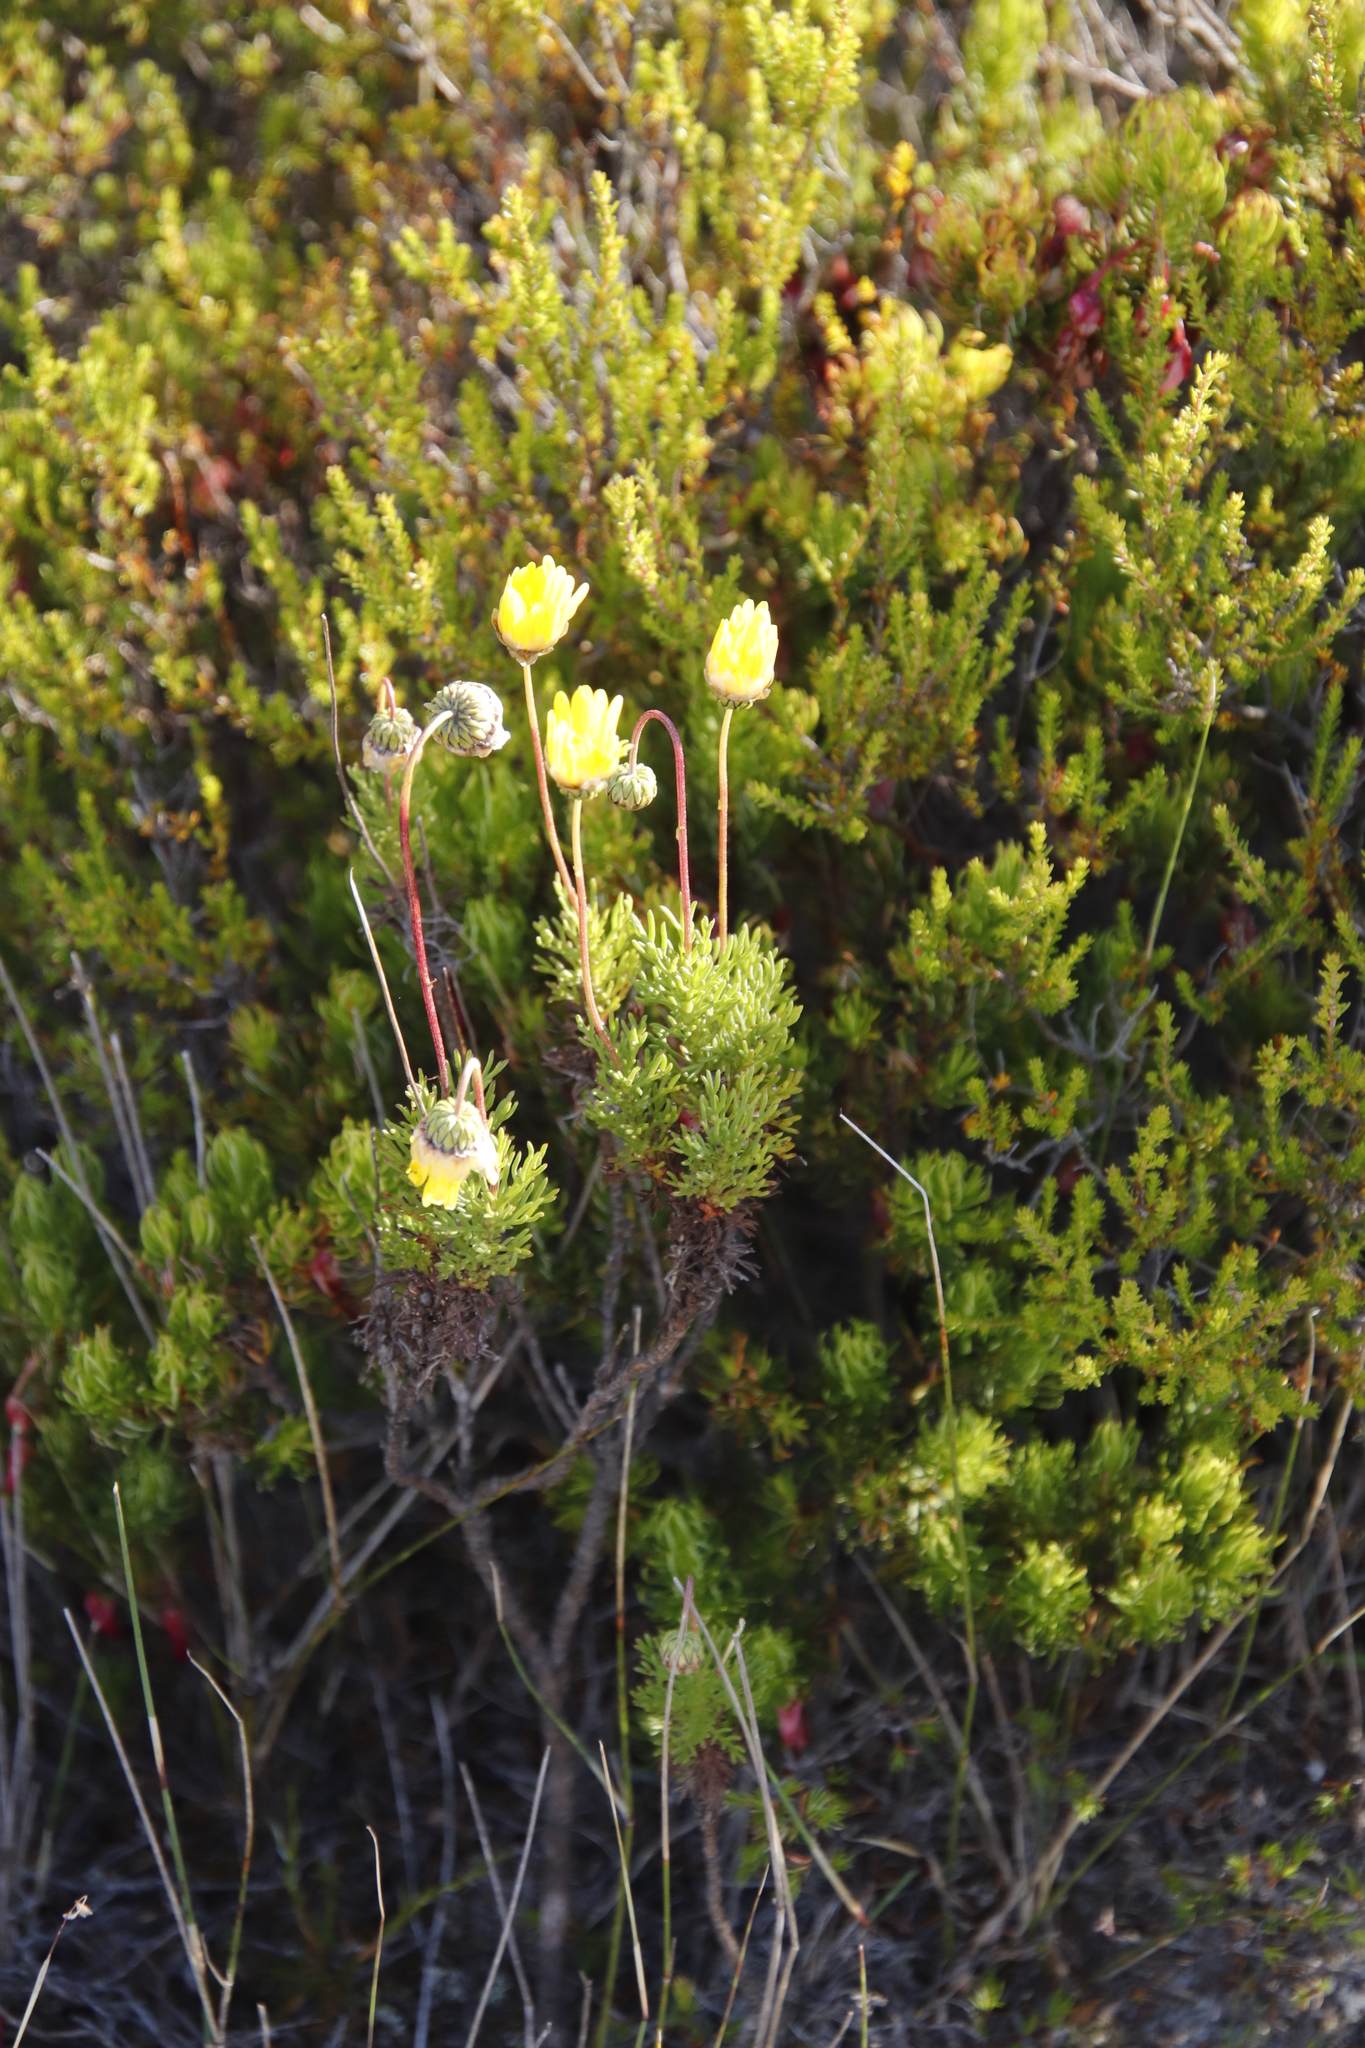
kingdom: Plantae
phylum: Tracheophyta
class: Magnoliopsida
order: Asterales
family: Asteraceae
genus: Euryops
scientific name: Euryops abrotanifolius
